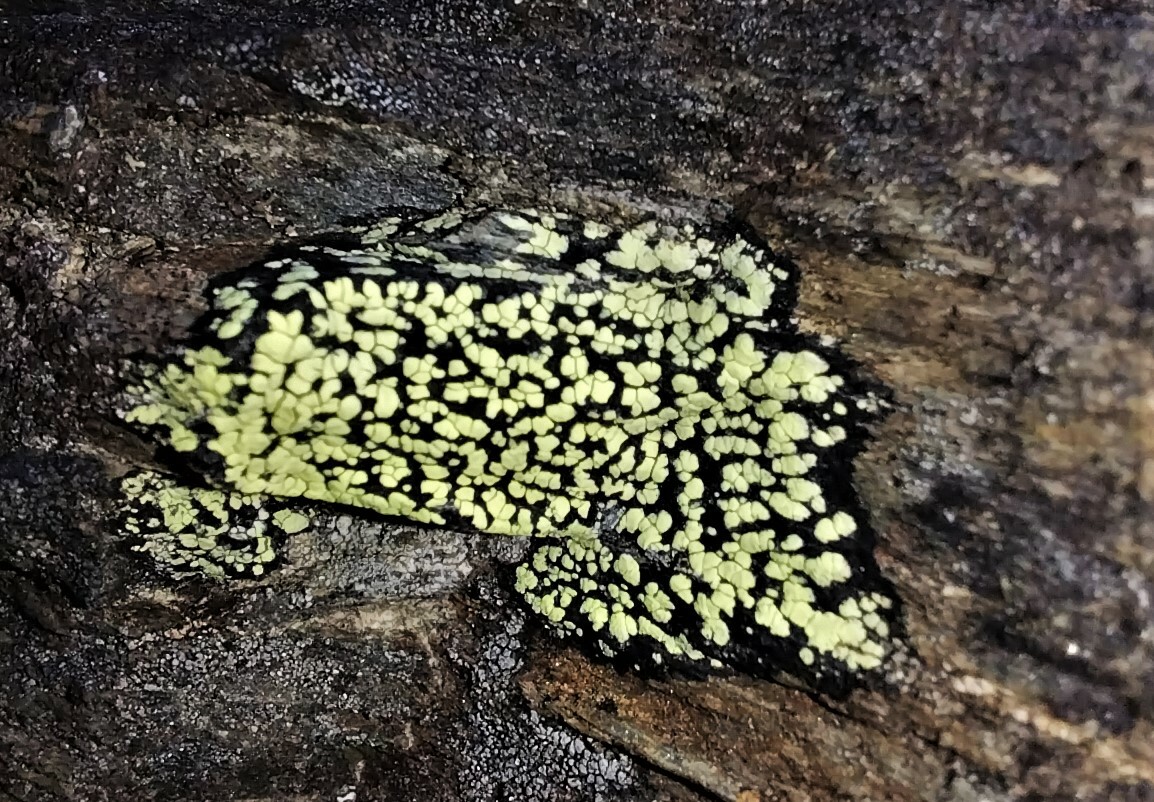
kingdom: Fungi
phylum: Ascomycota
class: Lecanoromycetes
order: Rhizocarpales
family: Rhizocarpaceae
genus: Rhizocarpon
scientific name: Rhizocarpon geographicum
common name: Yellow map lichen
